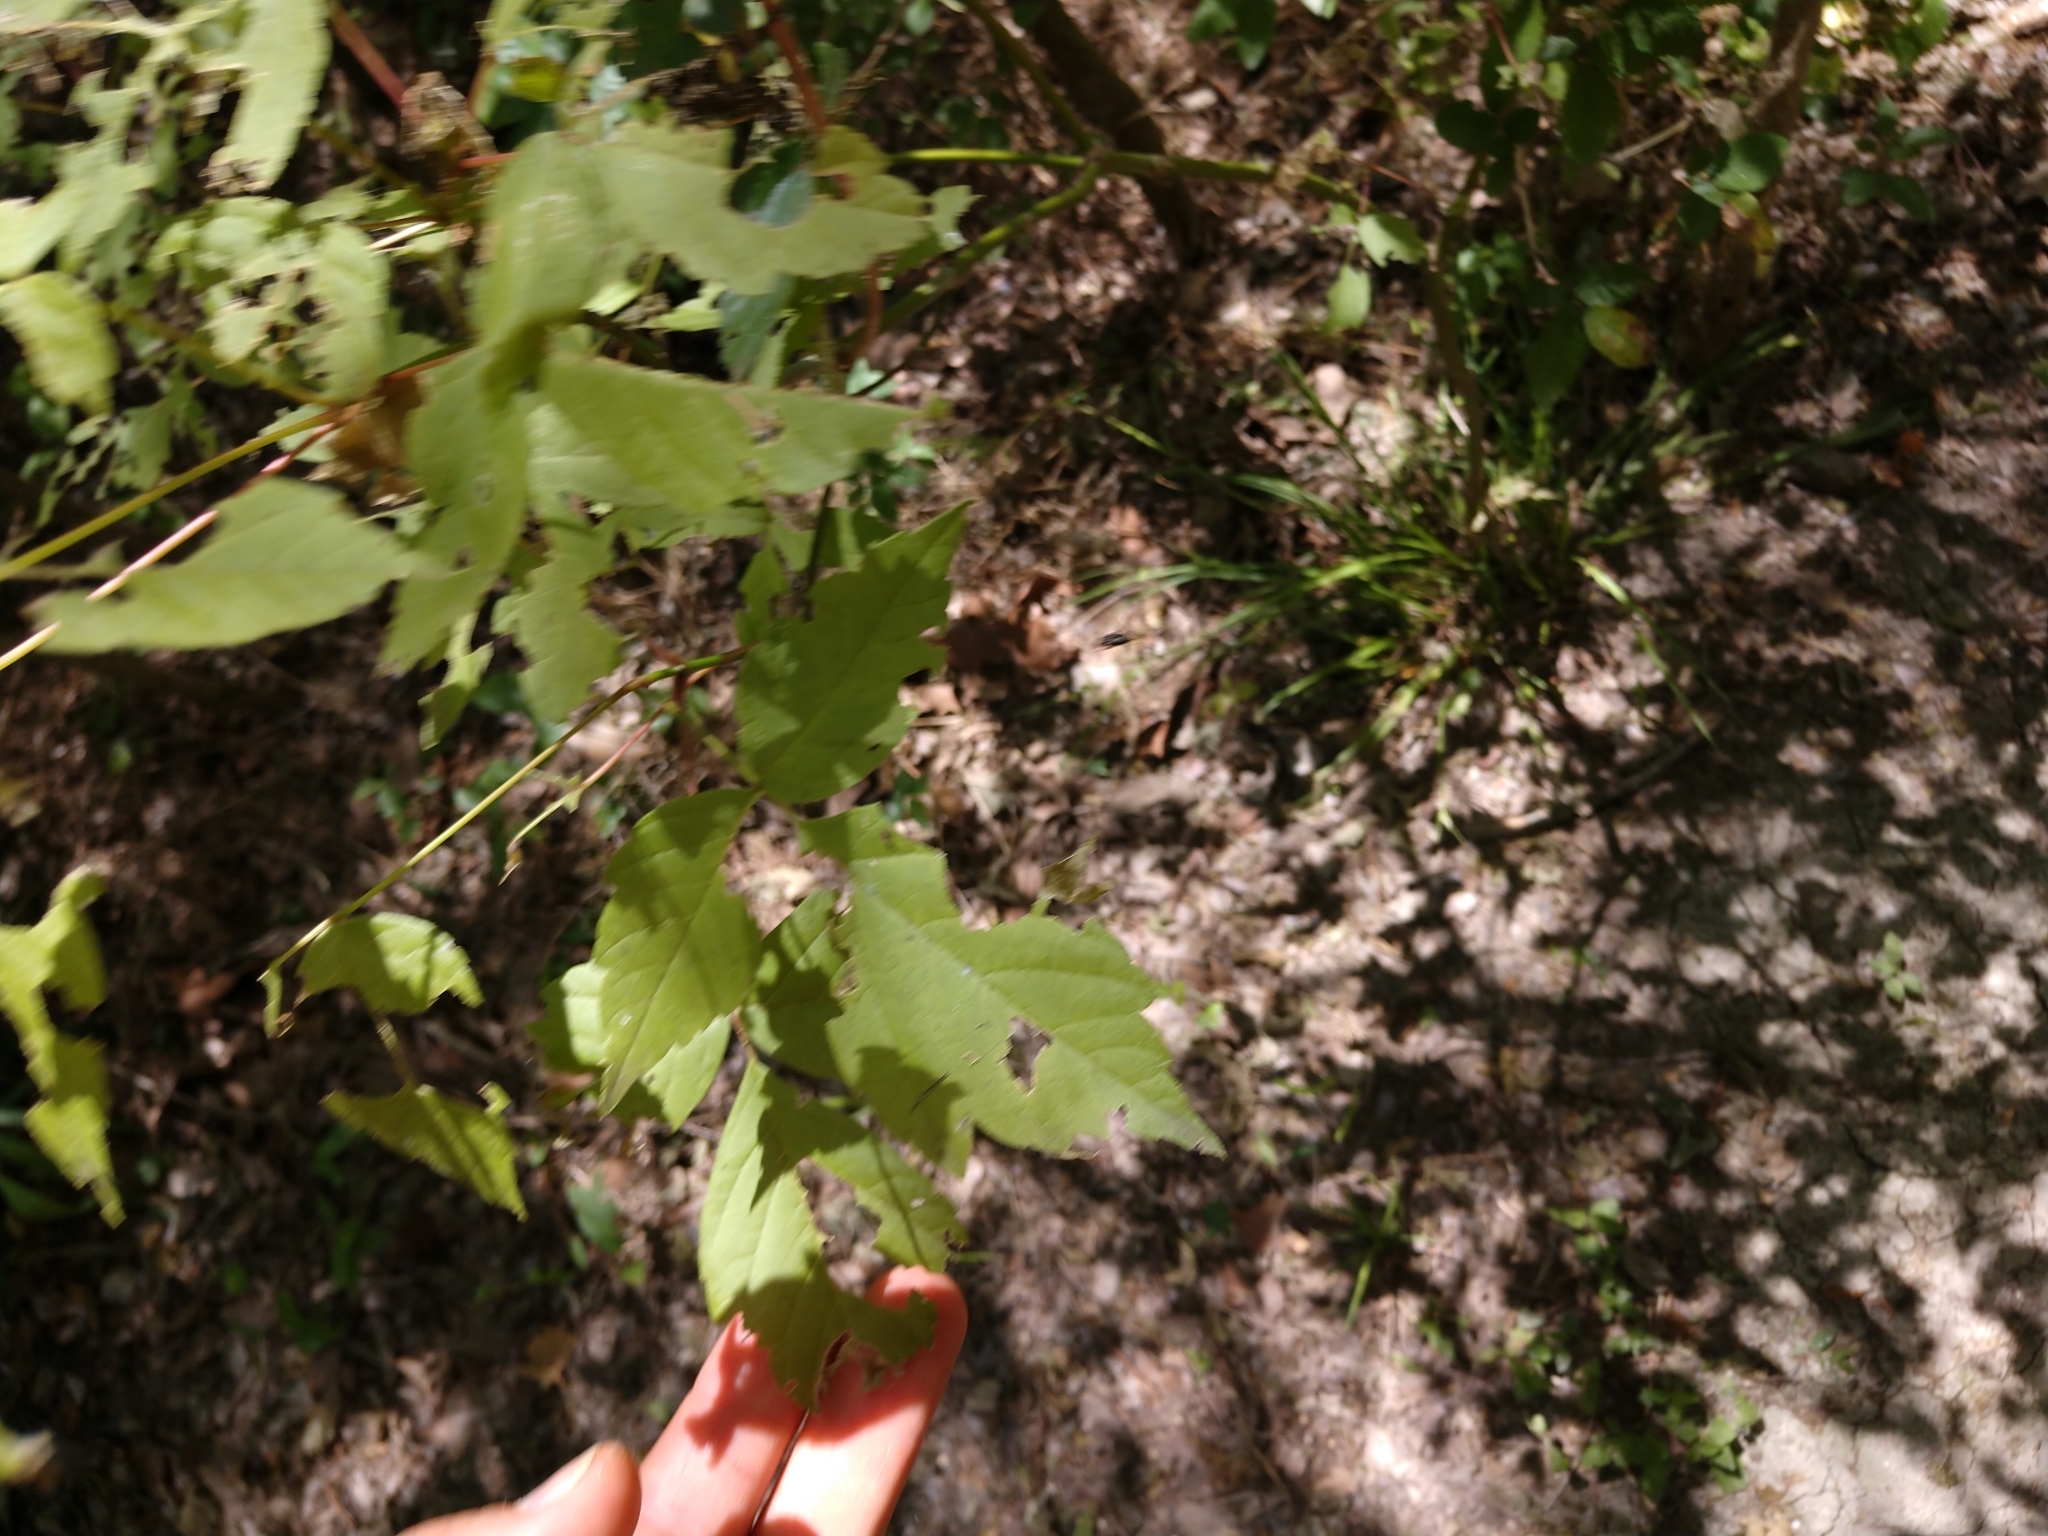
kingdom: Plantae
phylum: Tracheophyta
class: Magnoliopsida
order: Sapindales
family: Sapindaceae
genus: Acer
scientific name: Acer negundo
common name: Ashleaf maple
